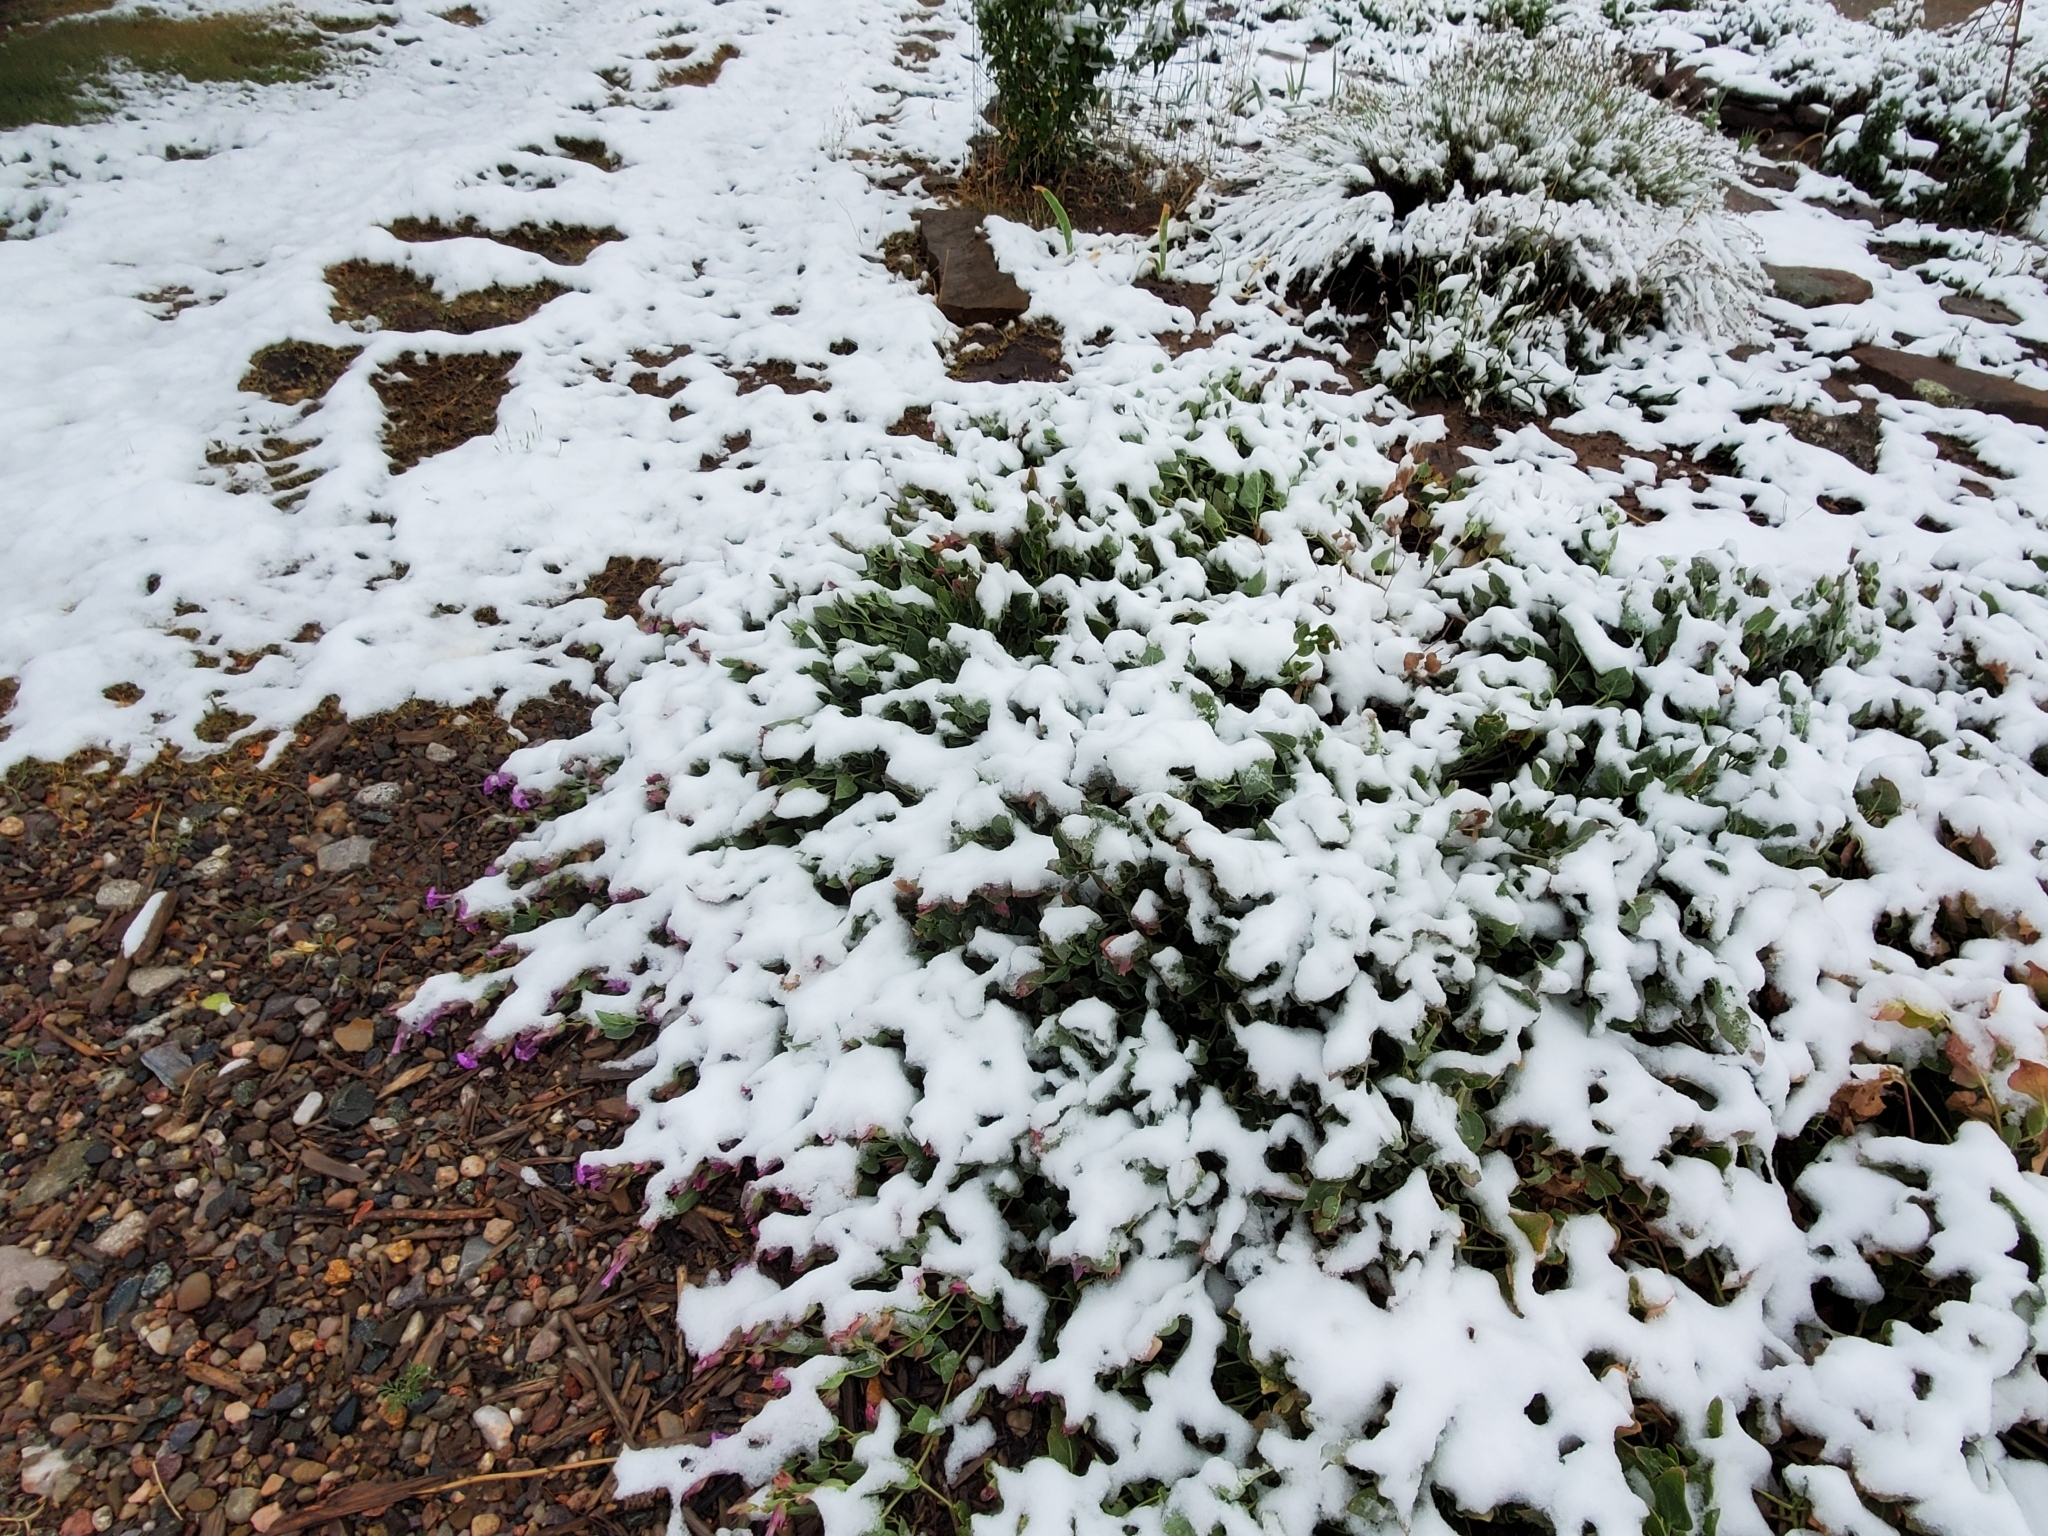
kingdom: Plantae
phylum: Tracheophyta
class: Magnoliopsida
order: Caryophyllales
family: Nyctaginaceae
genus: Mirabilis
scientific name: Mirabilis multiflora
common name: Froebel's four-o'clock
